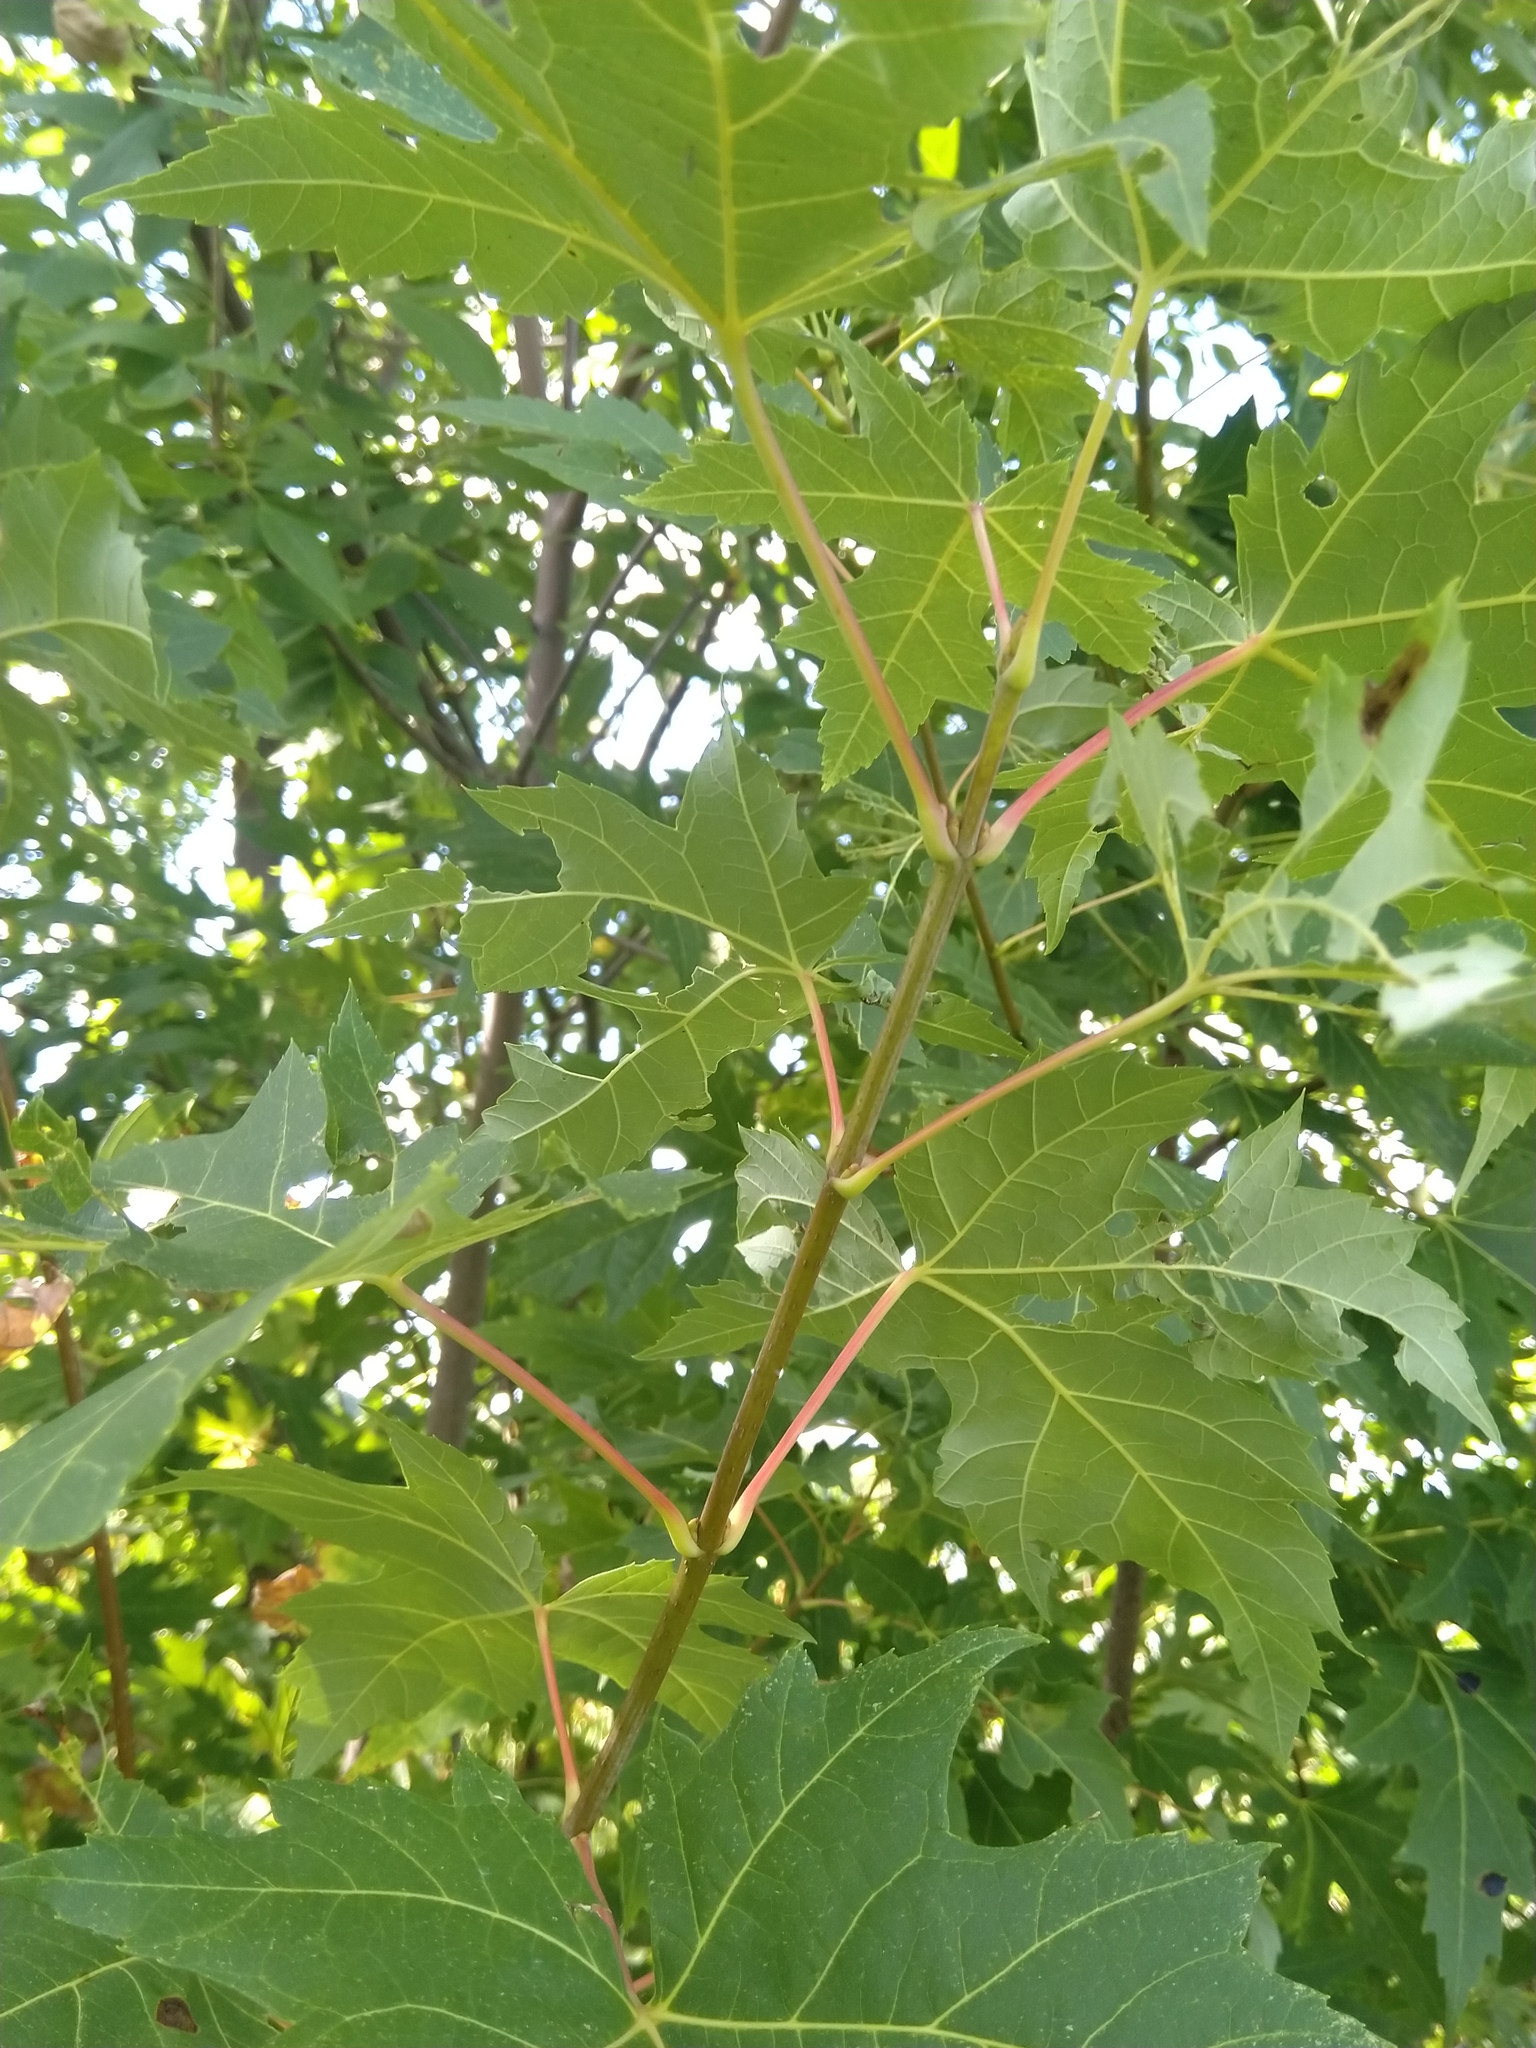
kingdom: Plantae
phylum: Tracheophyta
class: Magnoliopsida
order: Sapindales
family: Sapindaceae
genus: Acer
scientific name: Acer saccharinum
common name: Silver maple
